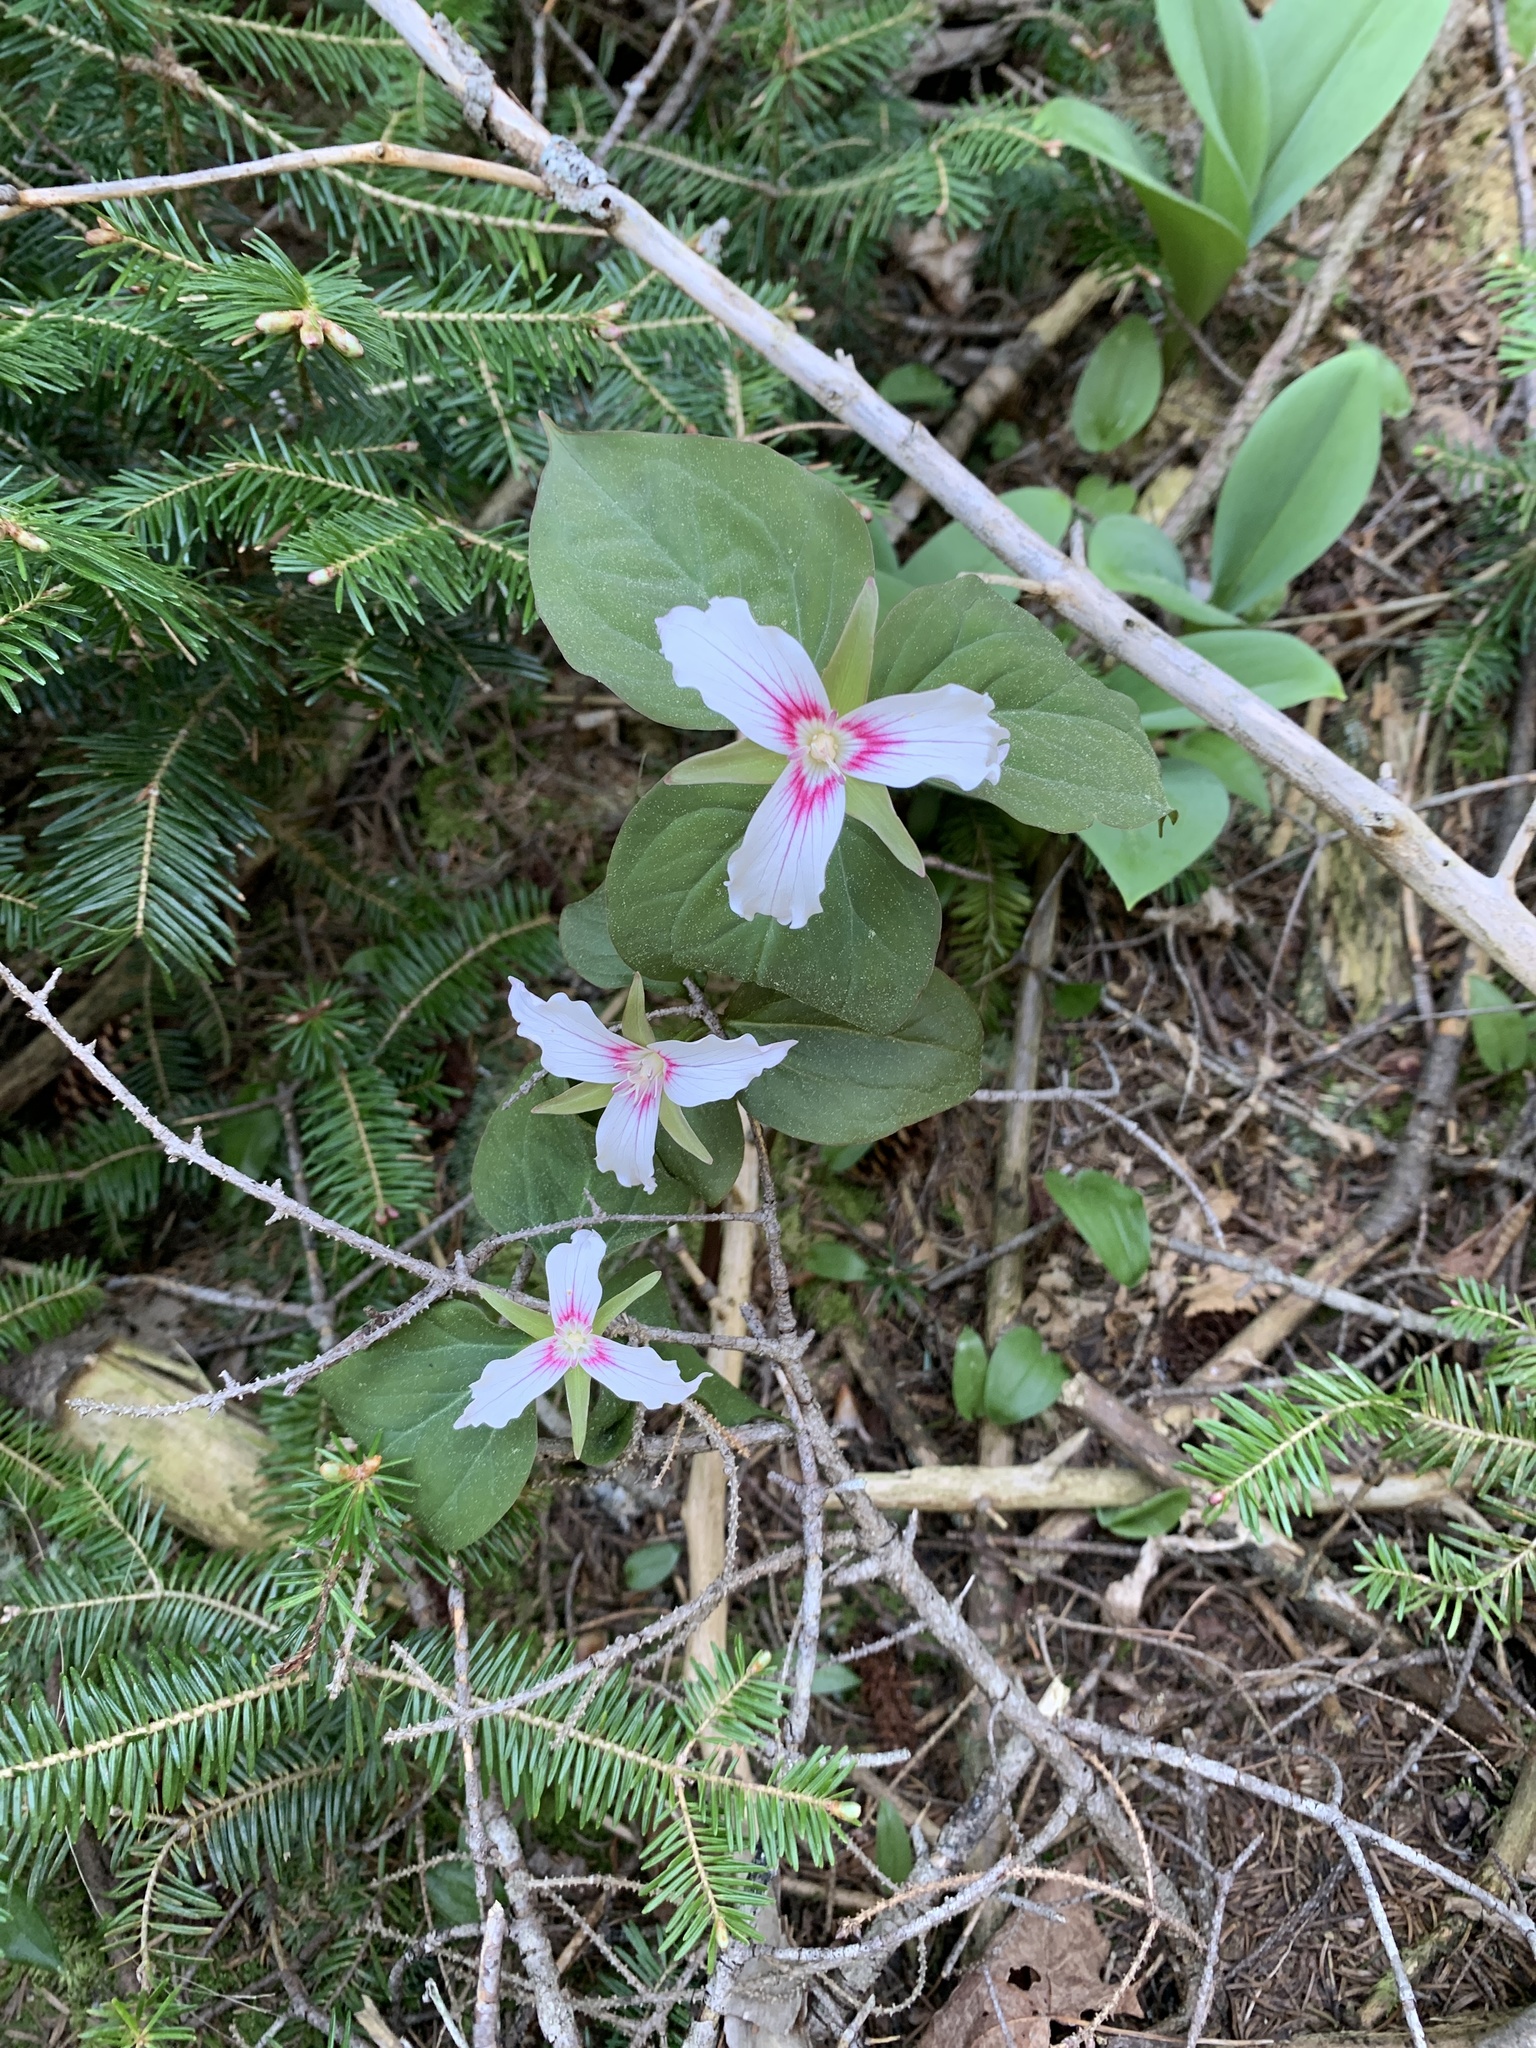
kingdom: Plantae
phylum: Tracheophyta
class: Liliopsida
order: Liliales
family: Melanthiaceae
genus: Trillium
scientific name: Trillium undulatum
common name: Paint trillium
